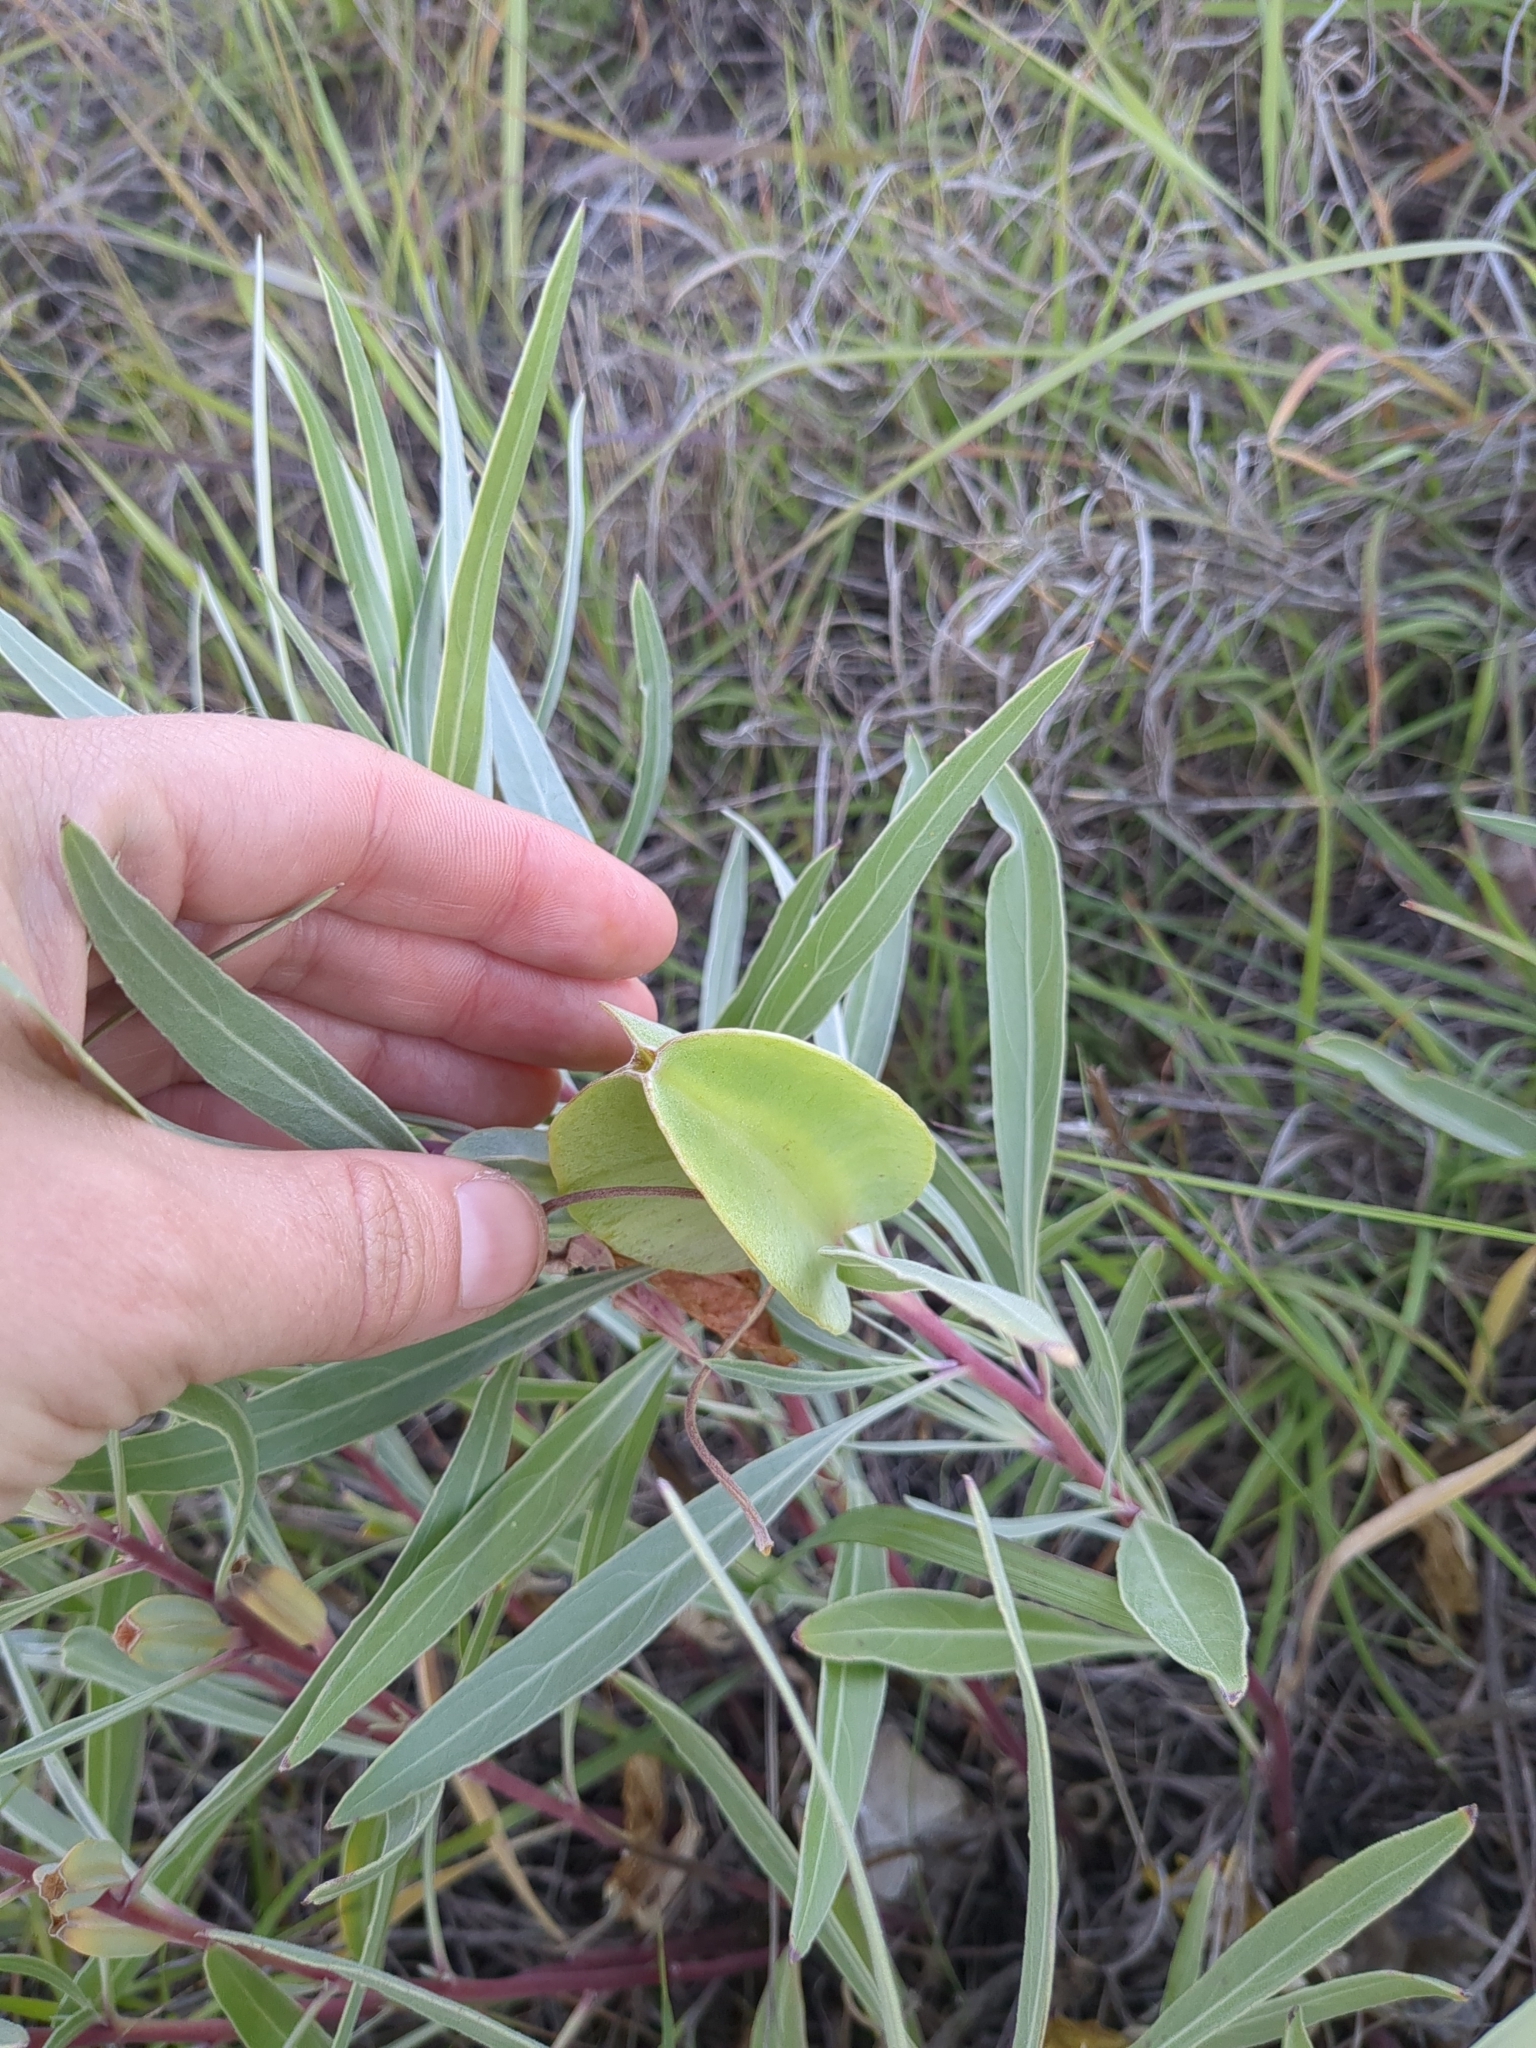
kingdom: Plantae
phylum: Tracheophyta
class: Magnoliopsida
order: Myrtales
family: Onagraceae
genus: Oenothera
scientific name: Oenothera macrocarpa
